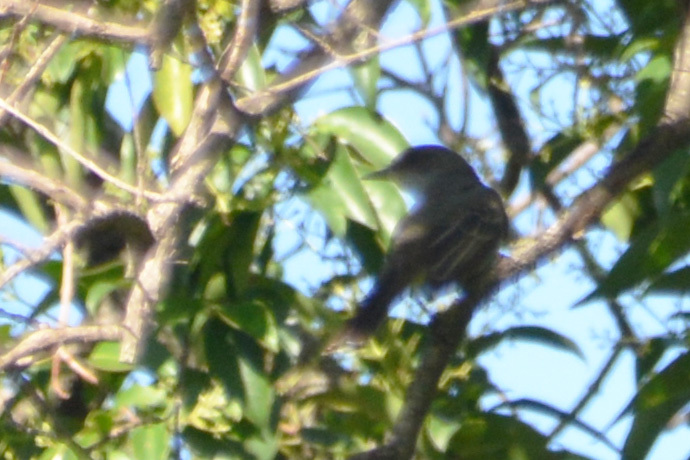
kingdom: Animalia
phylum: Chordata
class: Aves
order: Passeriformes
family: Tyrannidae
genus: Myiarchus
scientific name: Myiarchus swainsoni
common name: Swainson's flycatcher
